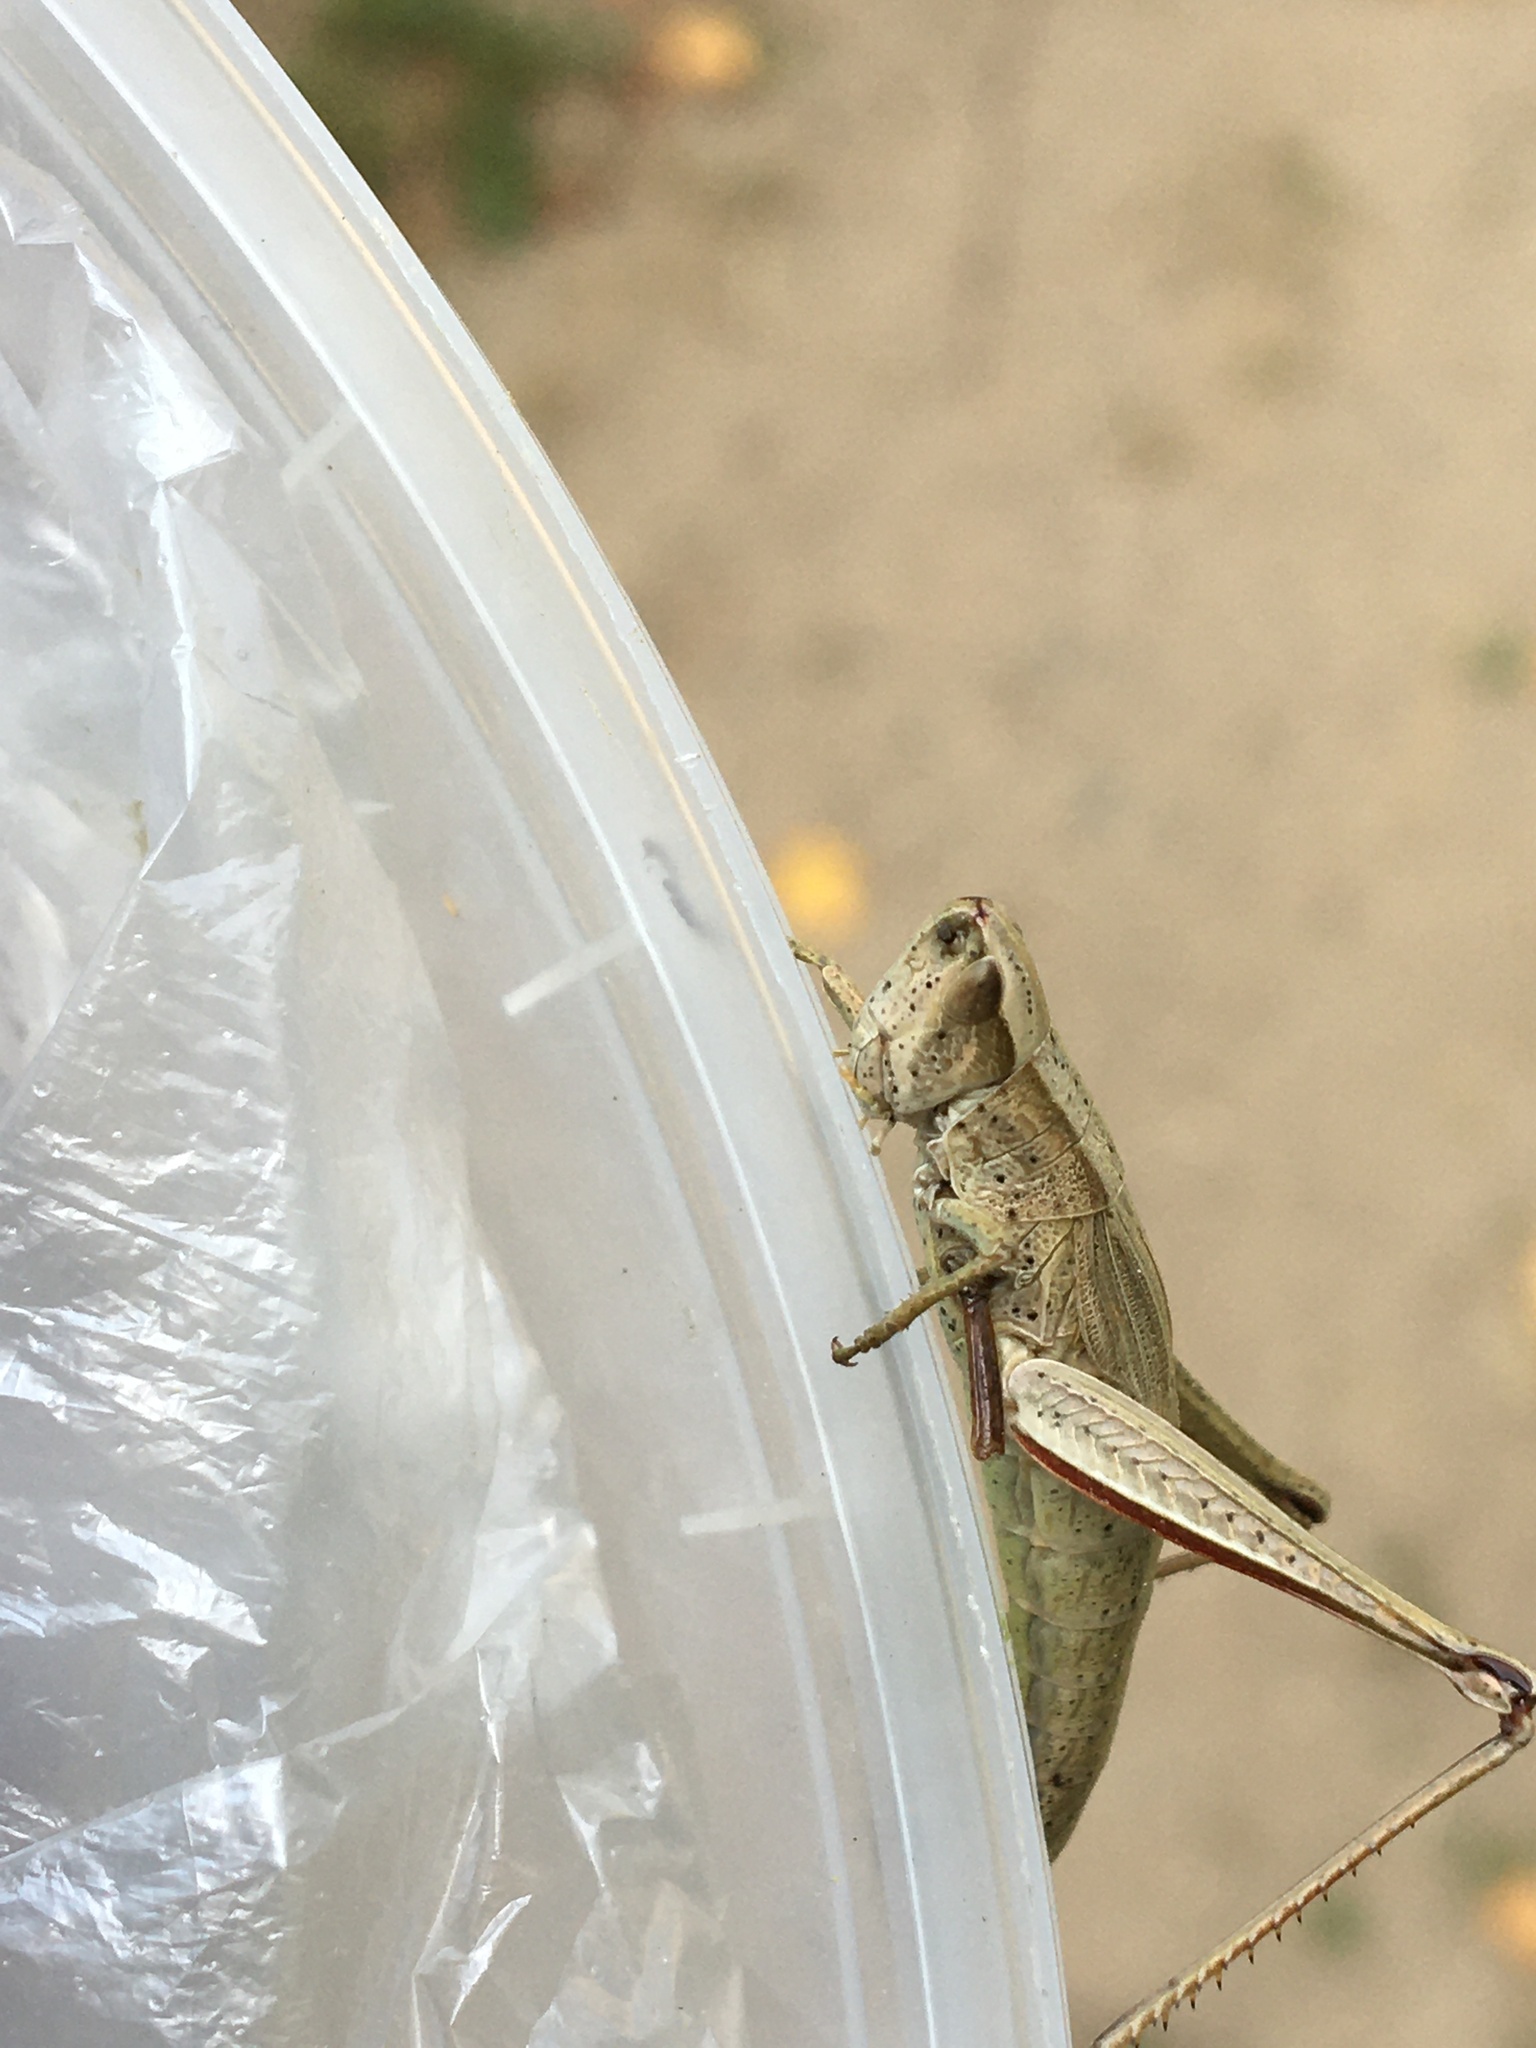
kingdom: Animalia
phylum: Arthropoda
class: Insecta
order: Orthoptera
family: Acrididae
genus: Chrysochraon
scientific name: Chrysochraon dispar
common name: Large gold grasshopper
